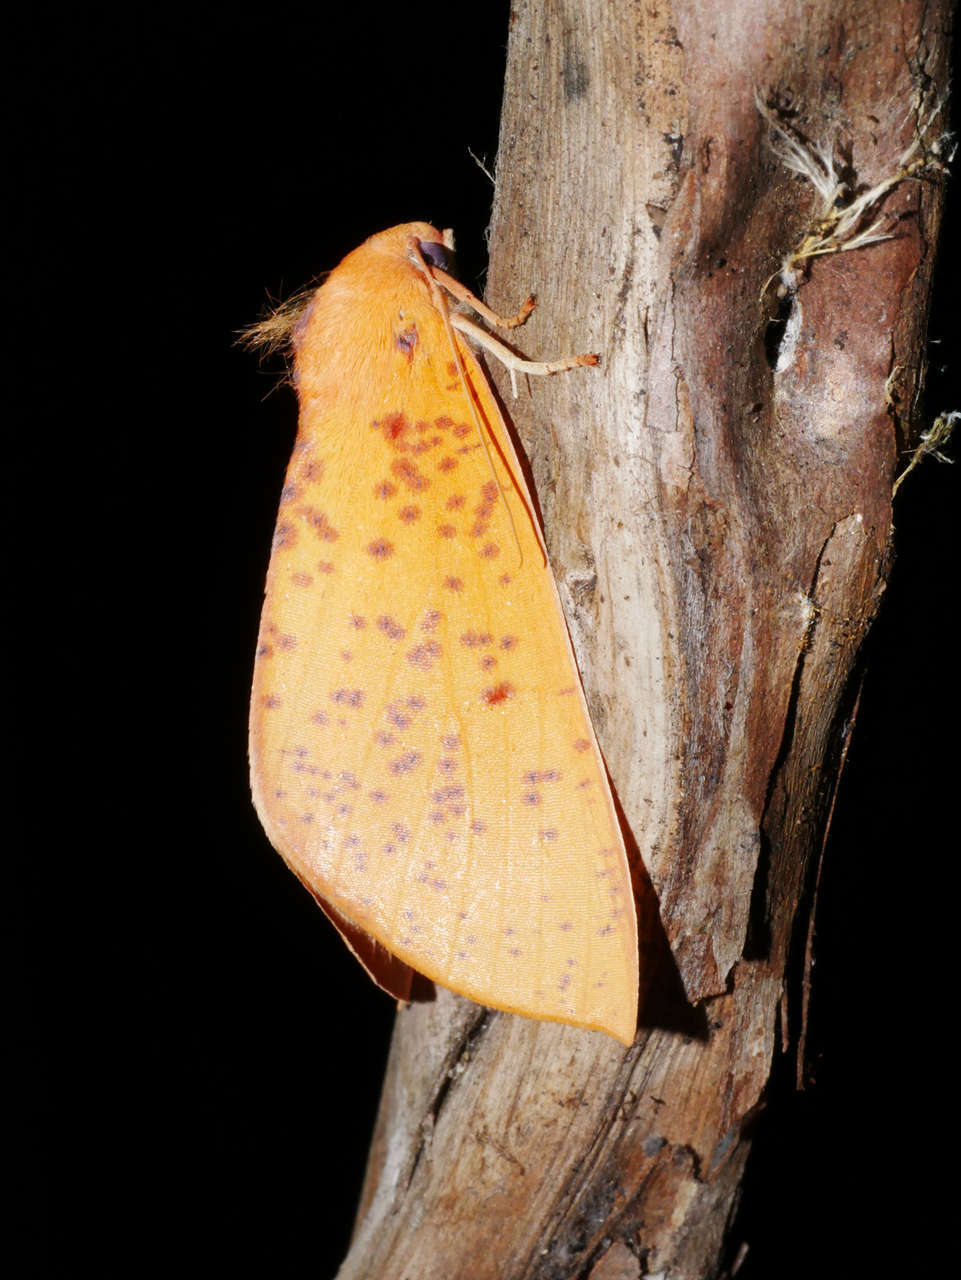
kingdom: Animalia
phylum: Arthropoda
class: Insecta
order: Lepidoptera
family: Geometridae
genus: Plesanemma
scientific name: Plesanemma fucata
